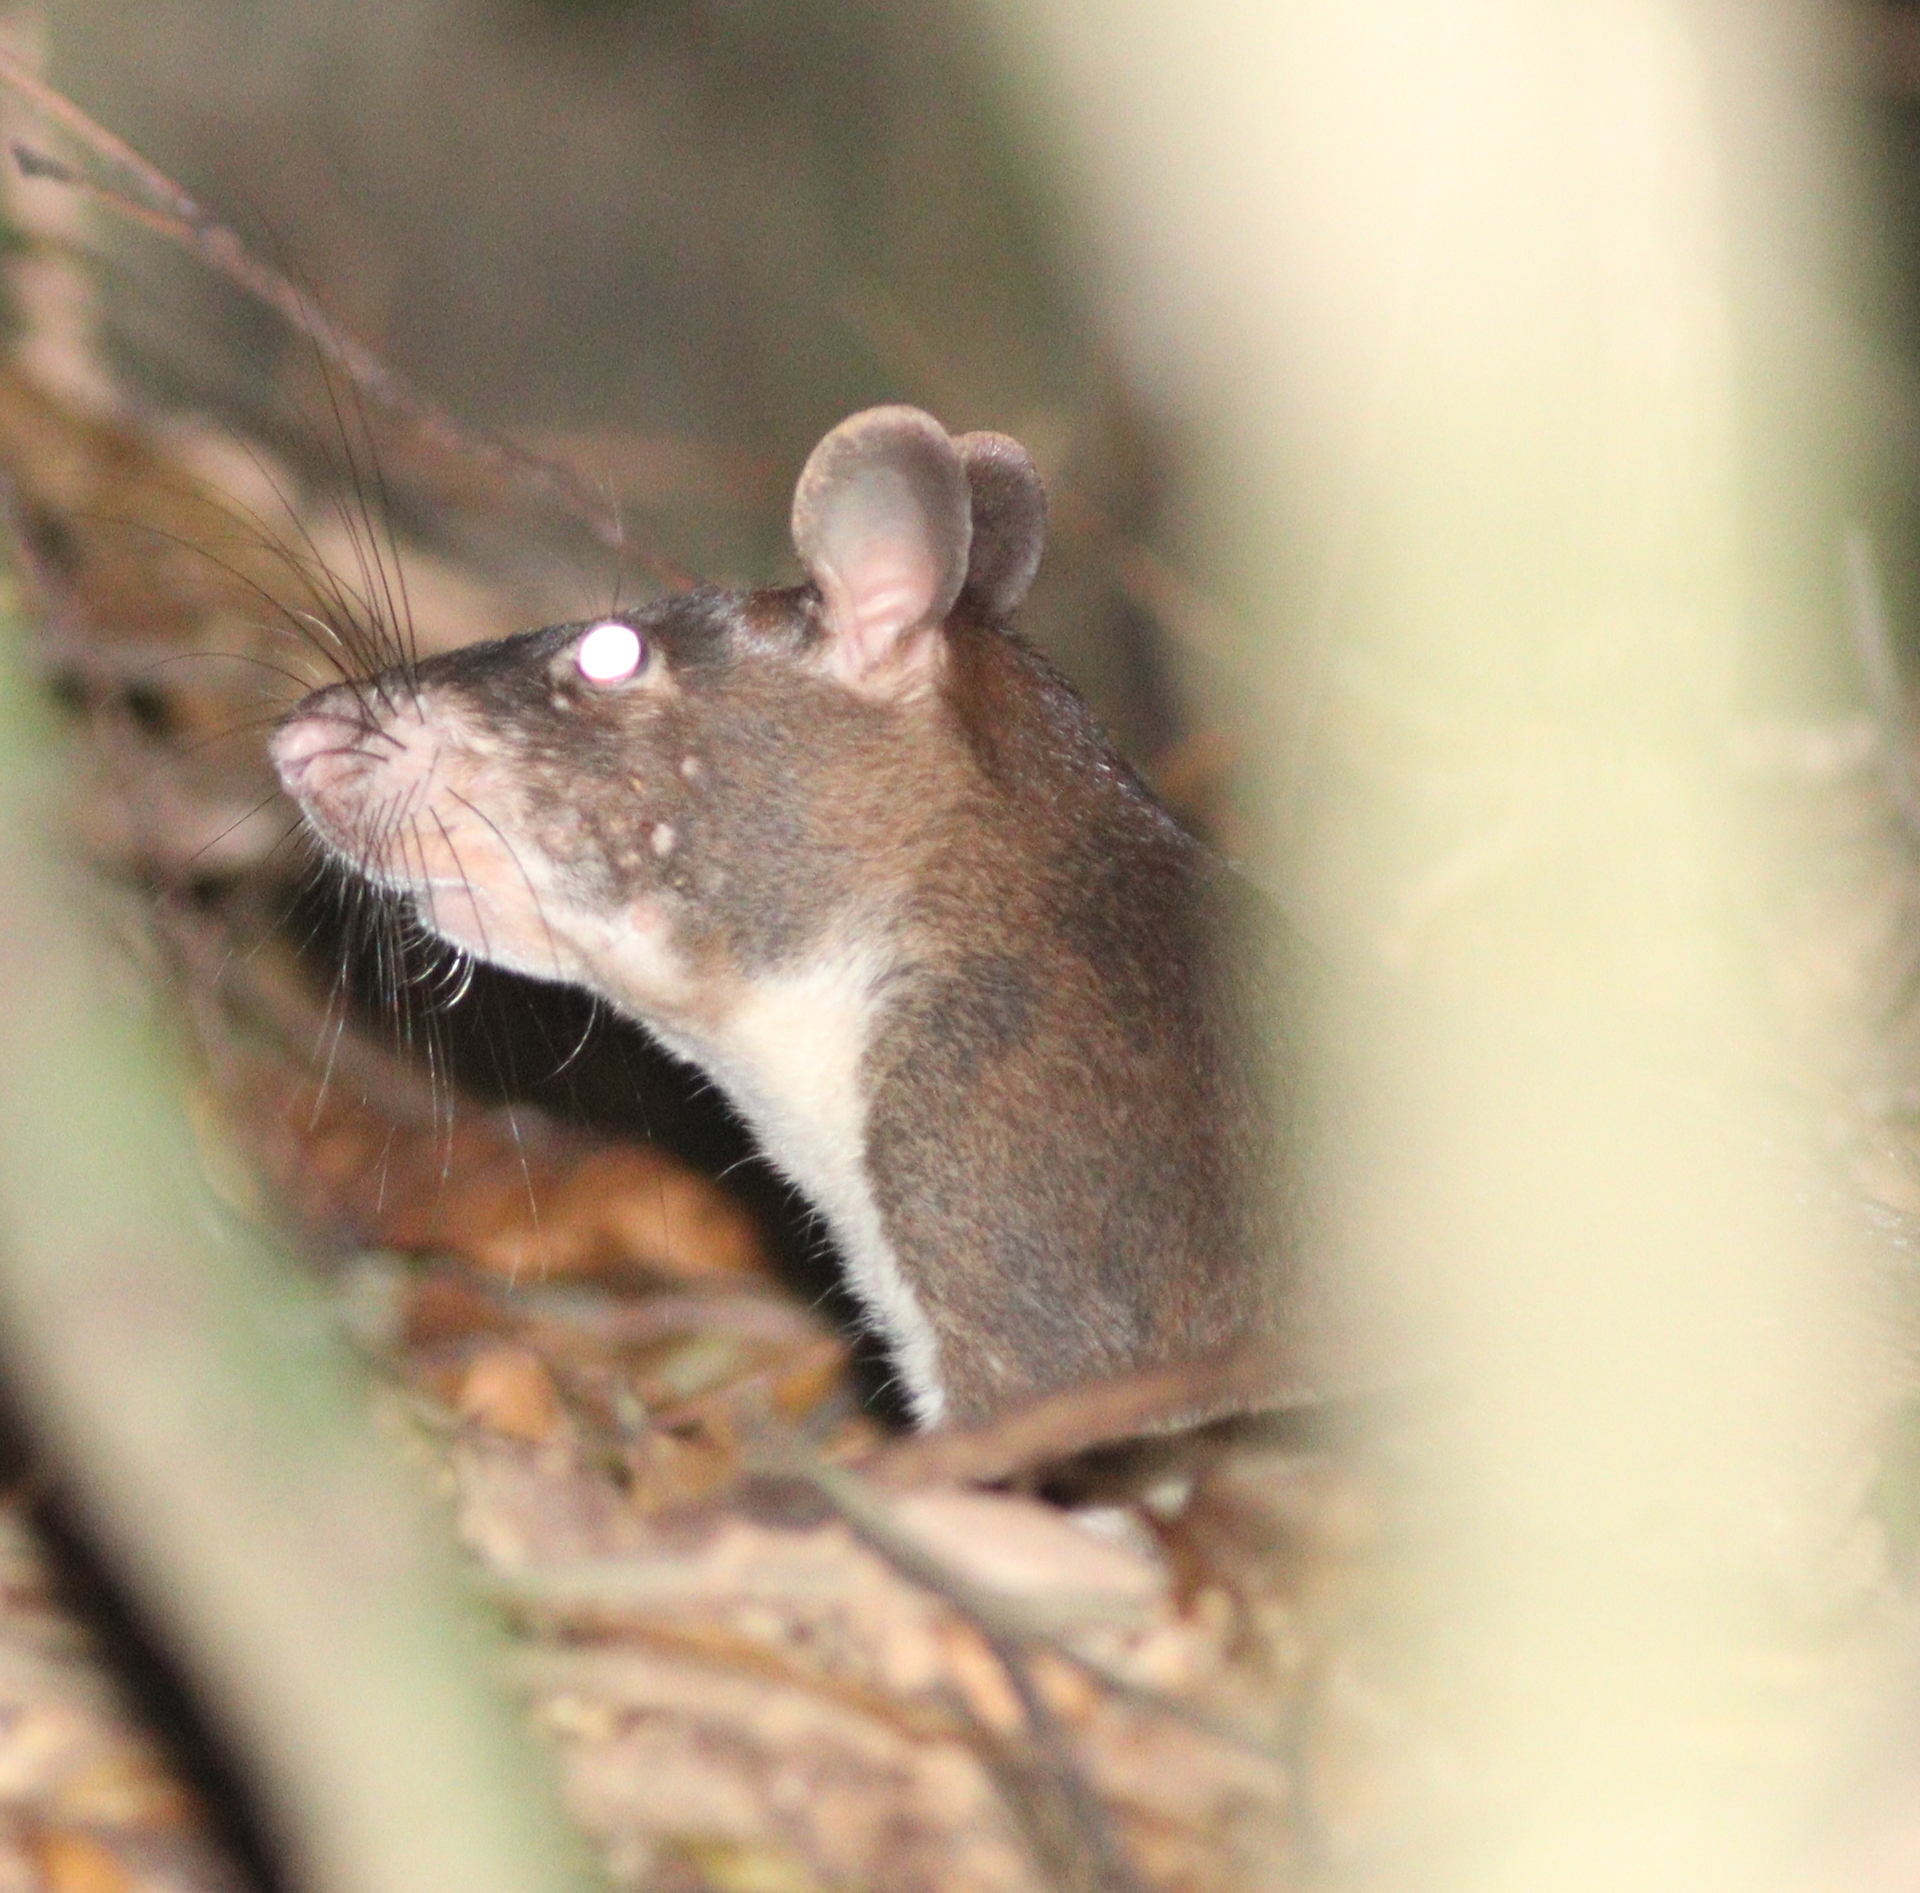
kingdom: Animalia
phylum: Chordata
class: Mammalia
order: Rodentia
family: Nesomyidae
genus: Cricetomys
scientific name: Cricetomys emini
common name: Forest giant pouched rat
